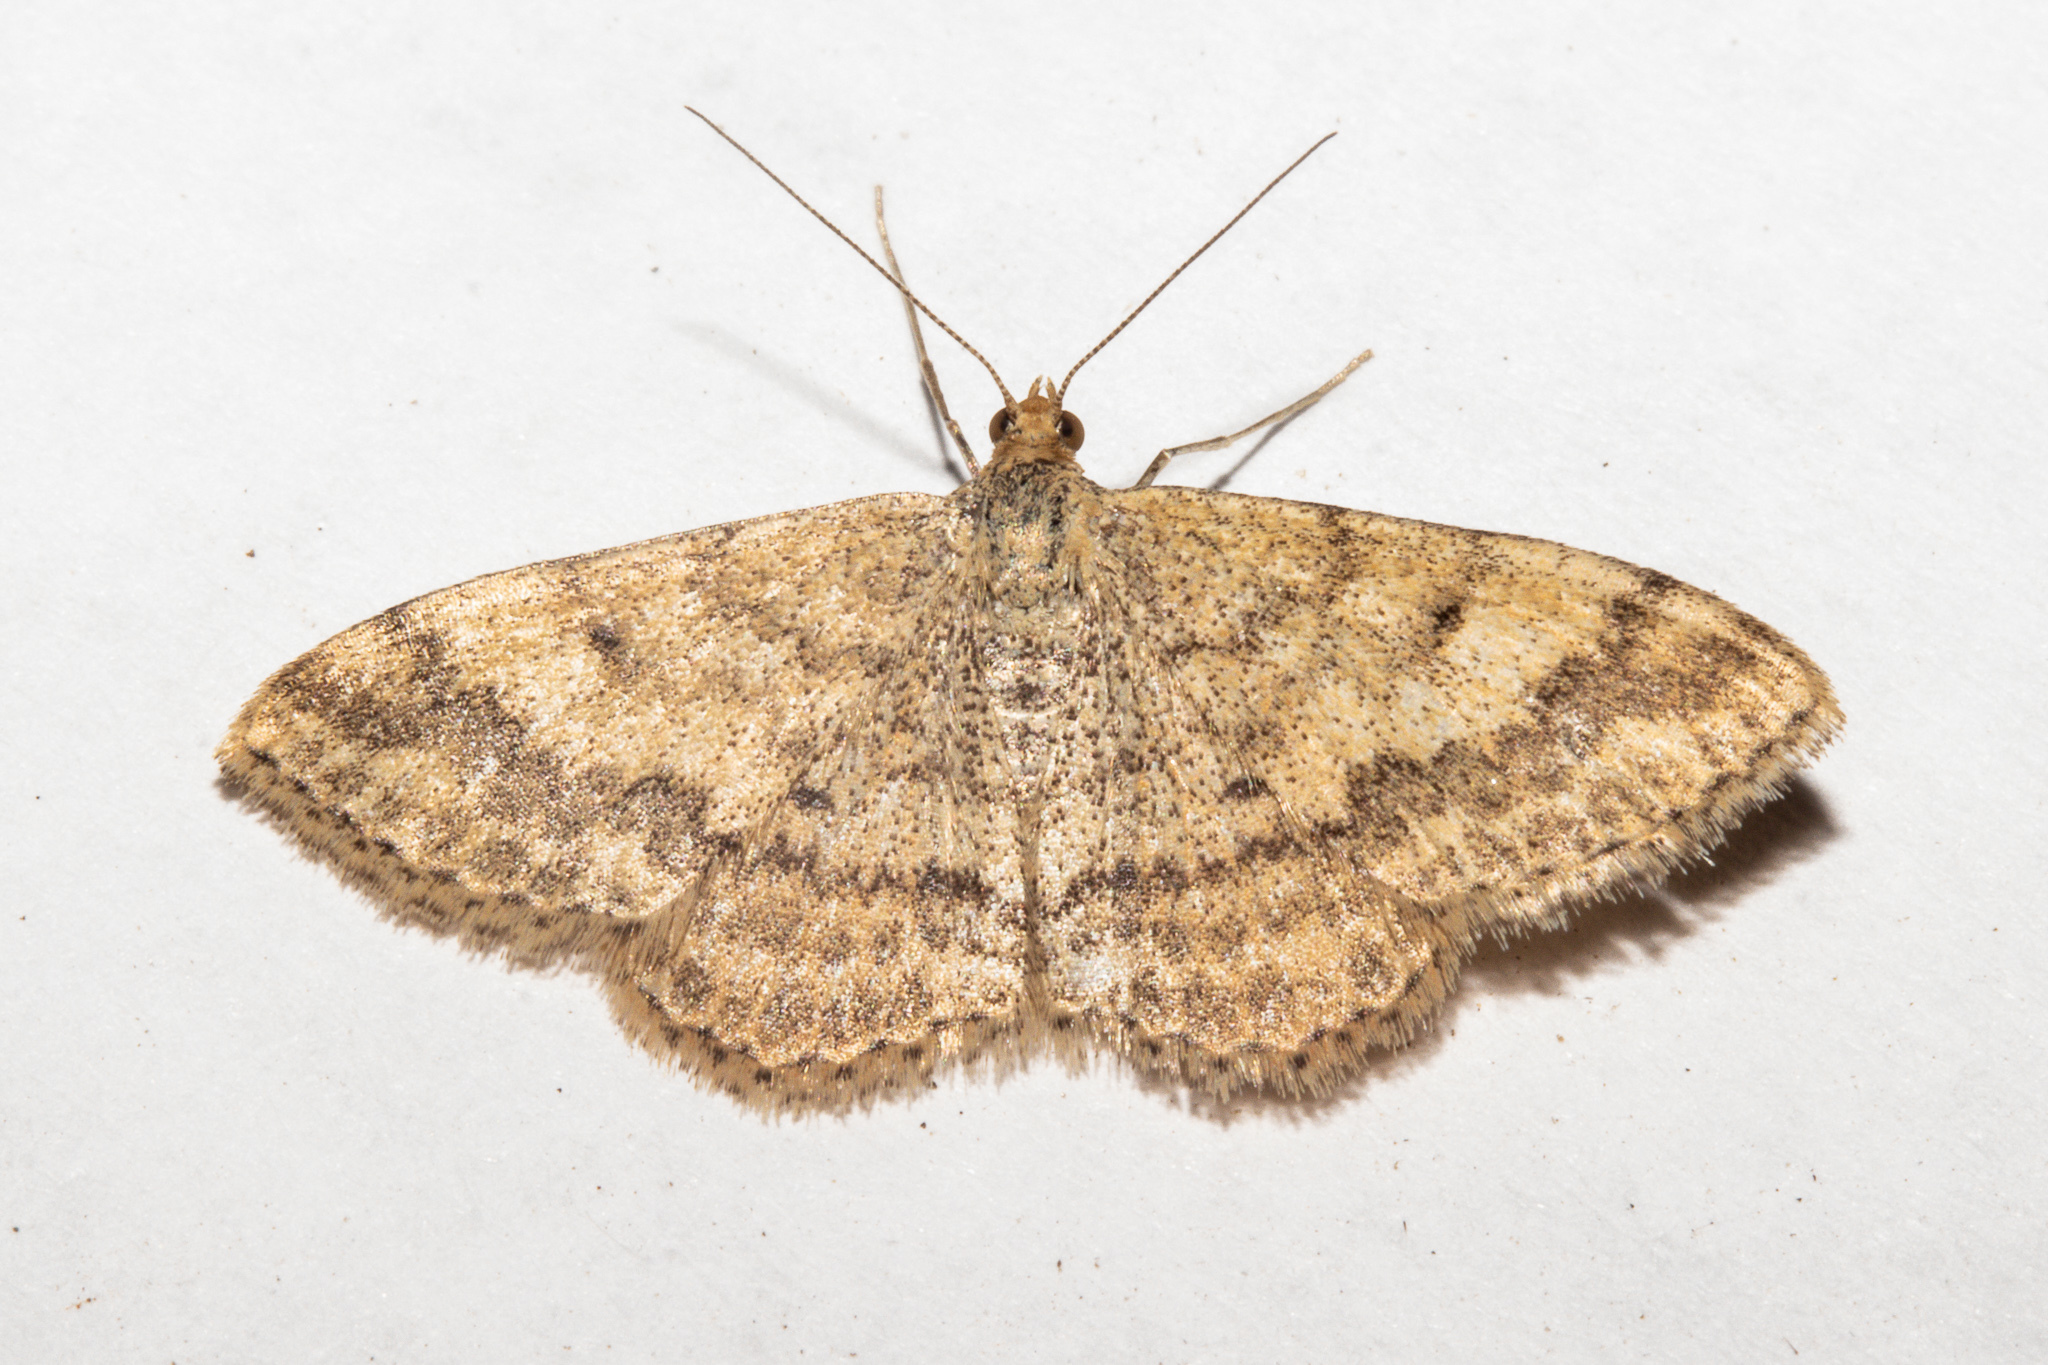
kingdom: Animalia
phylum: Arthropoda
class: Insecta
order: Lepidoptera
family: Geometridae
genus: Scopula
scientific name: Scopula rubraria
